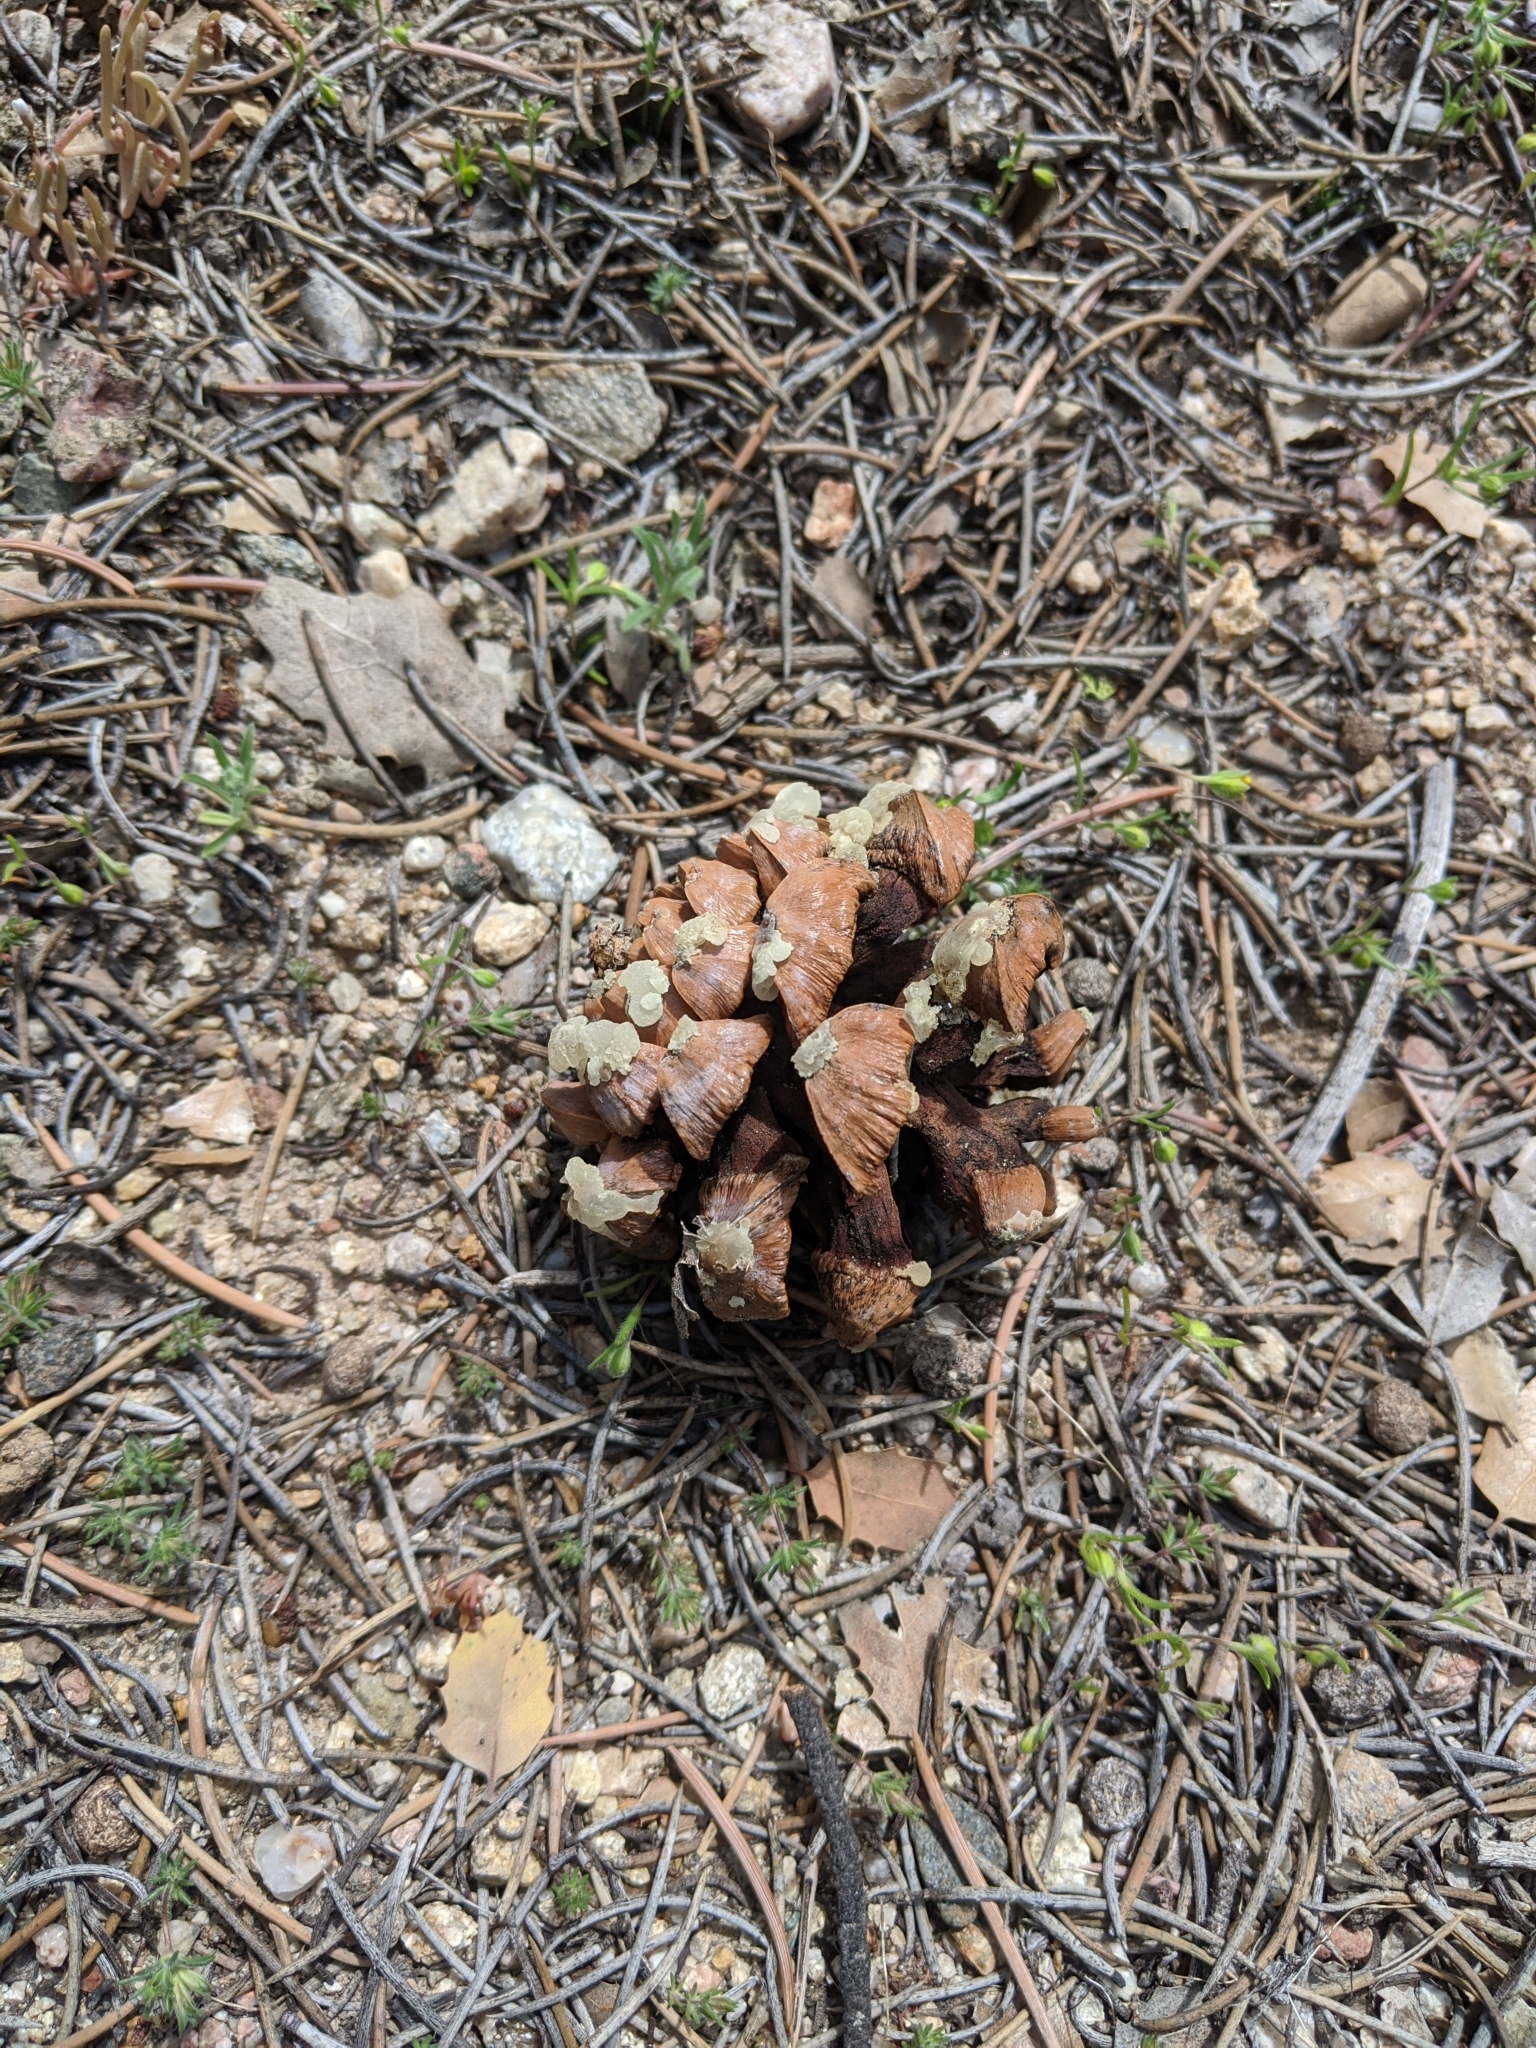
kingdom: Plantae
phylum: Tracheophyta
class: Pinopsida
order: Pinales
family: Pinaceae
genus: Pinus
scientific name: Pinus monophylla
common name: One-leaved nut pine
